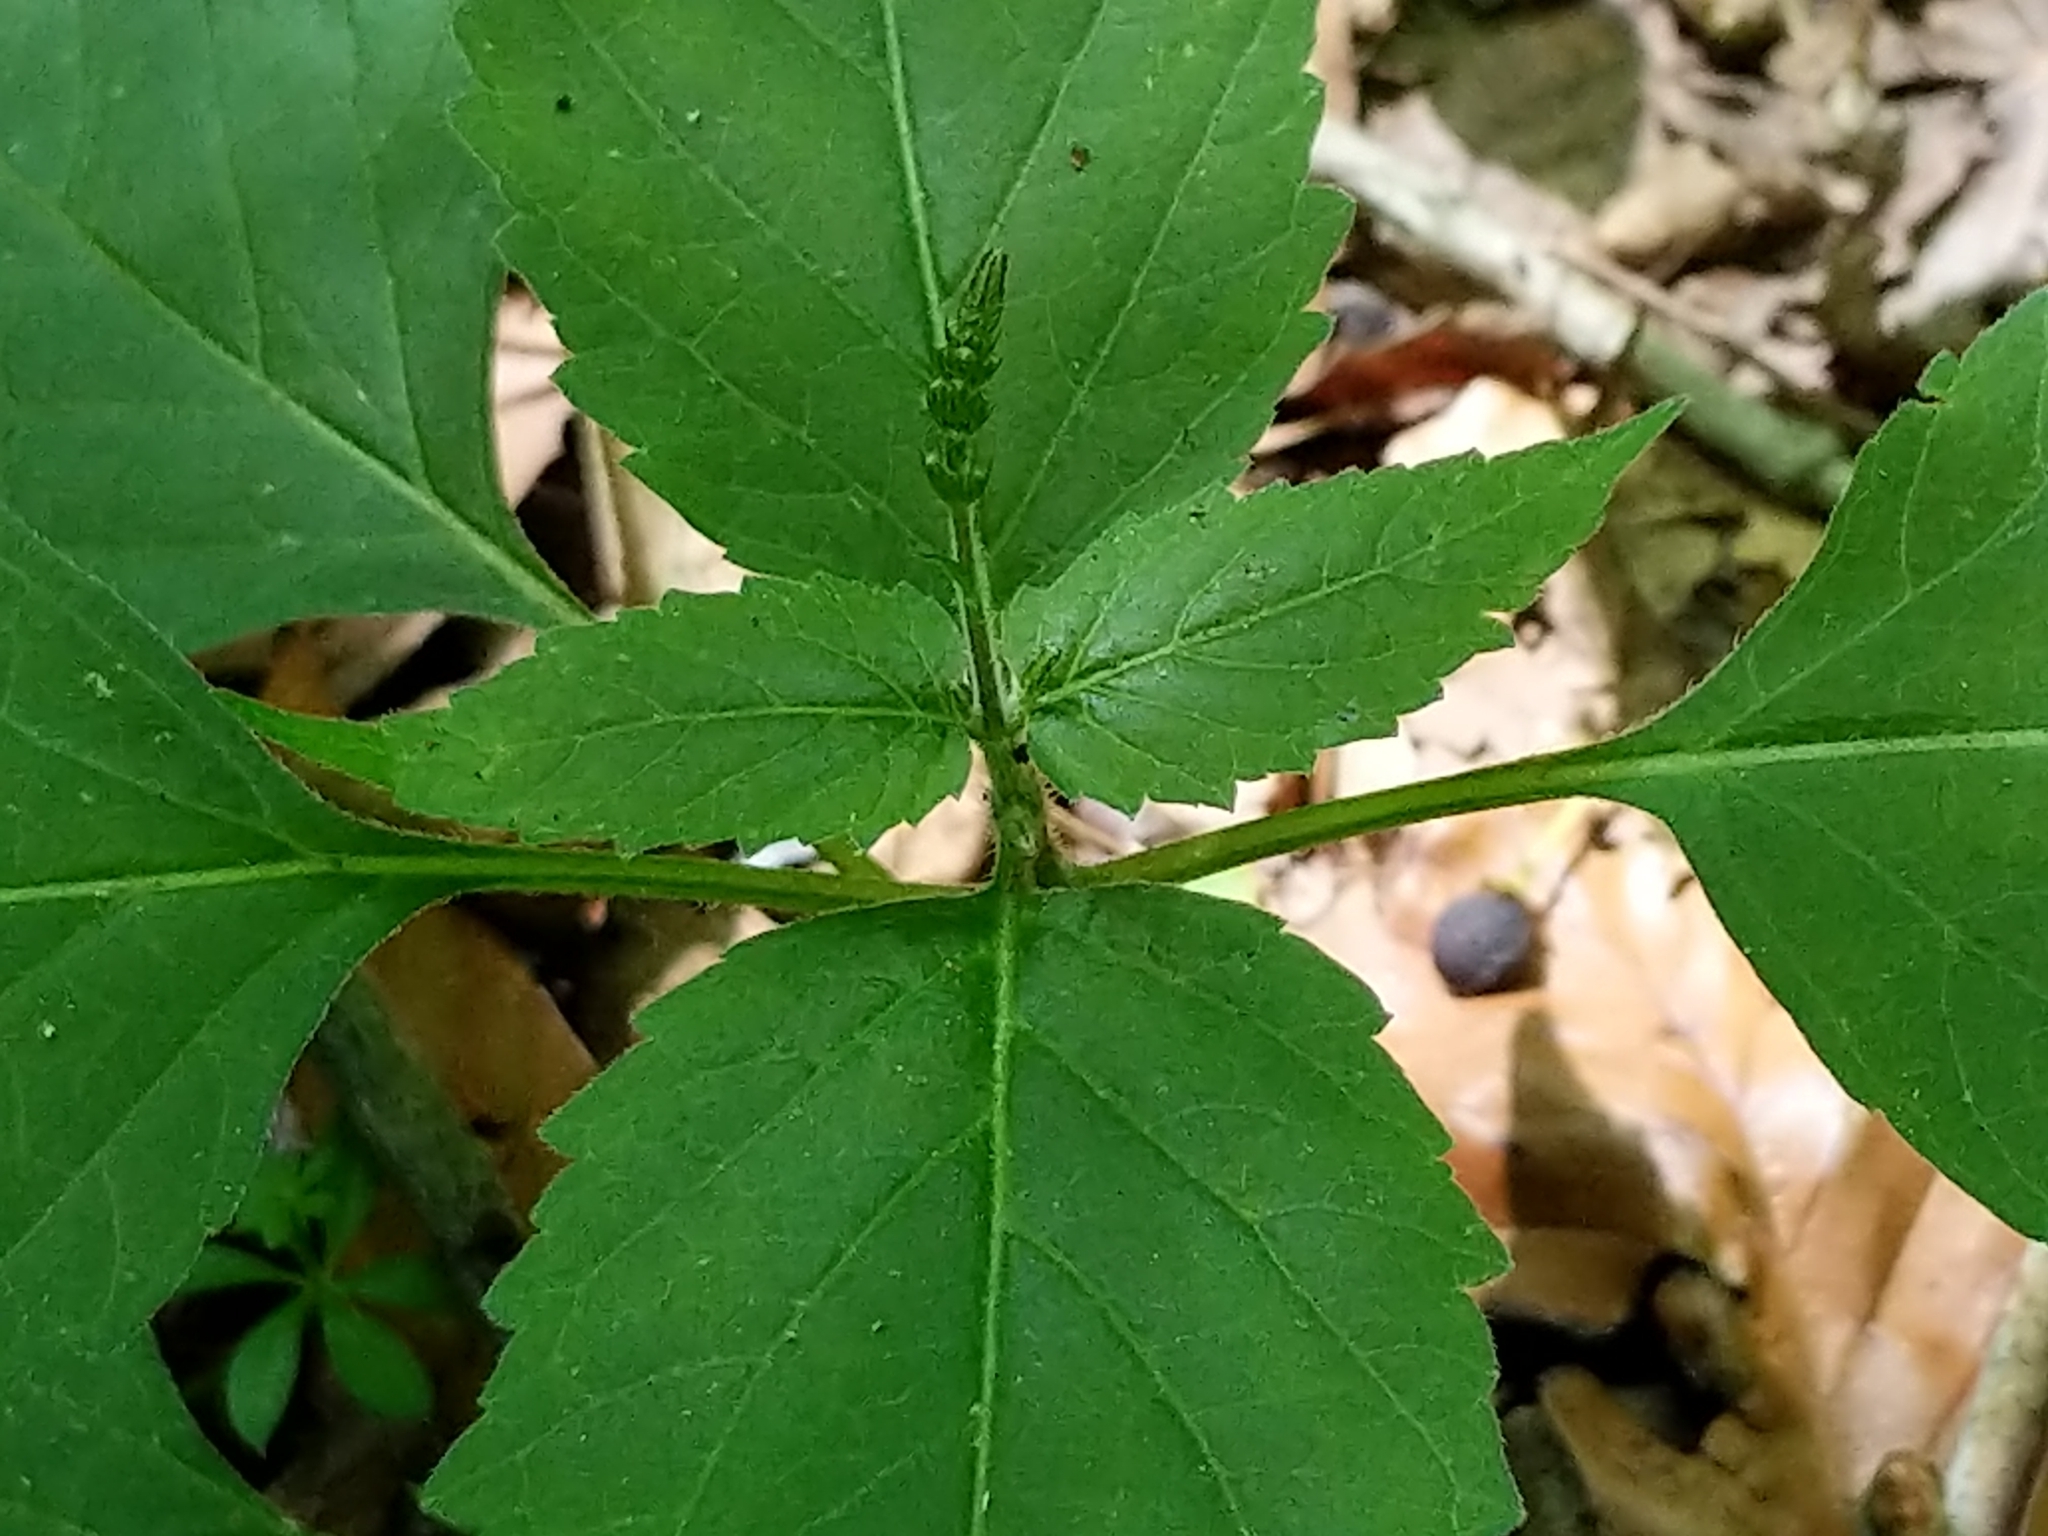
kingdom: Plantae
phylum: Tracheophyta
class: Magnoliopsida
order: Lamiales
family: Phrymaceae
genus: Phryma
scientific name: Phryma leptostachya
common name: American lopseed
